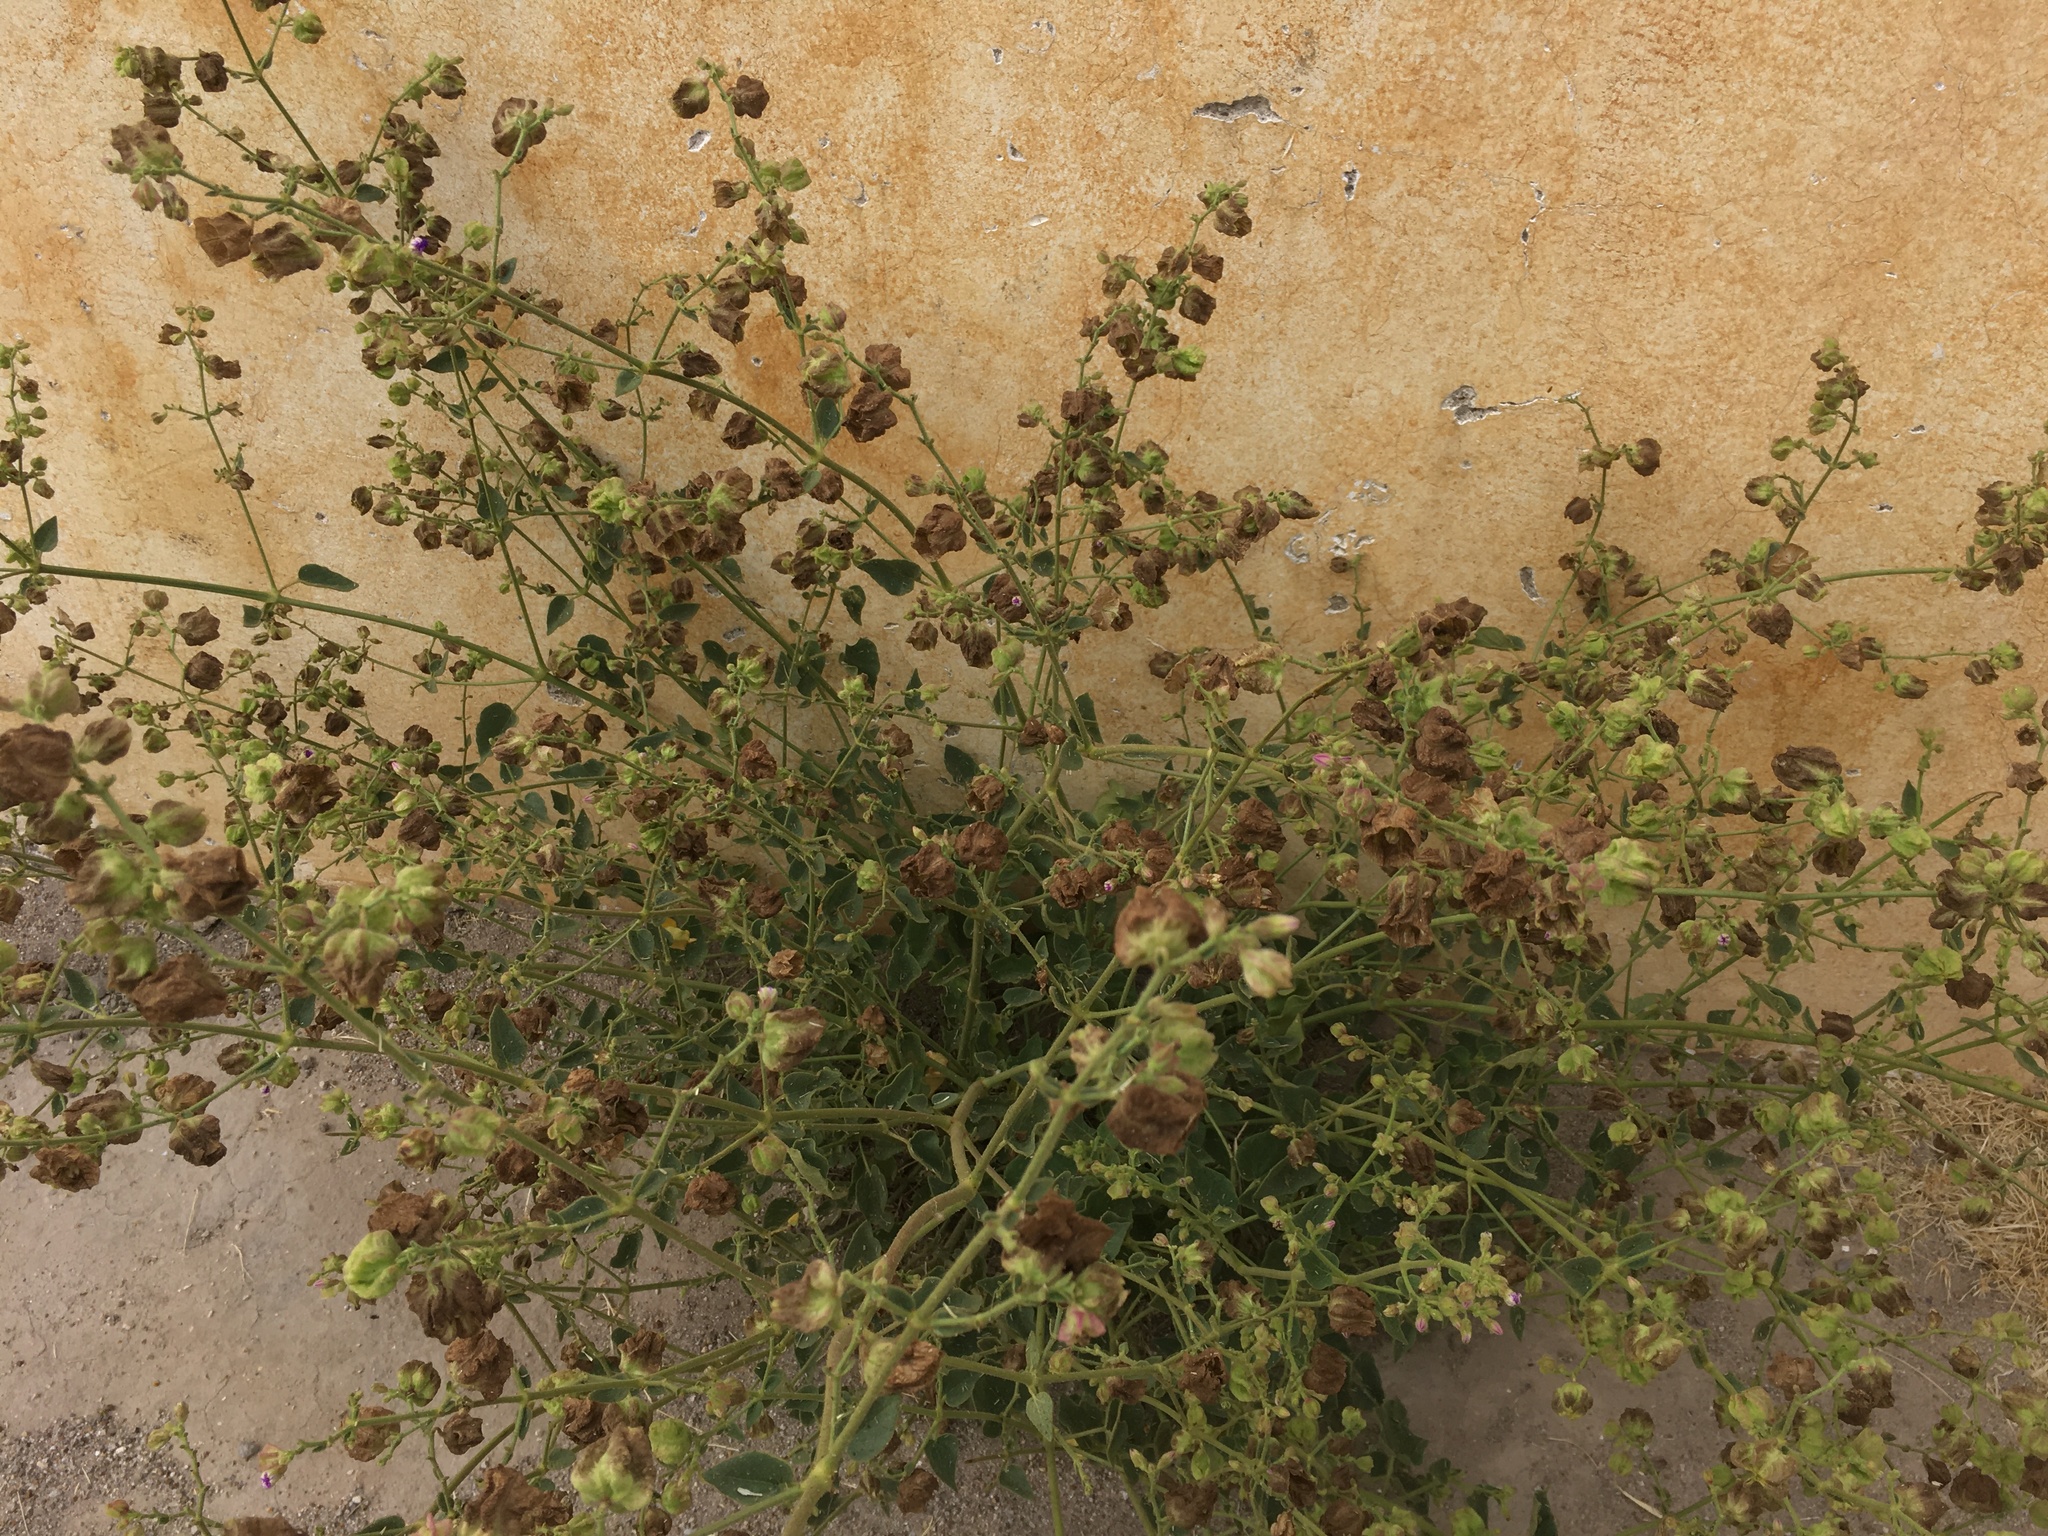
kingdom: Plantae
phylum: Tracheophyta
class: Magnoliopsida
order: Caryophyllales
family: Nyctaginaceae
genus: Mirabilis
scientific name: Mirabilis viscosa
